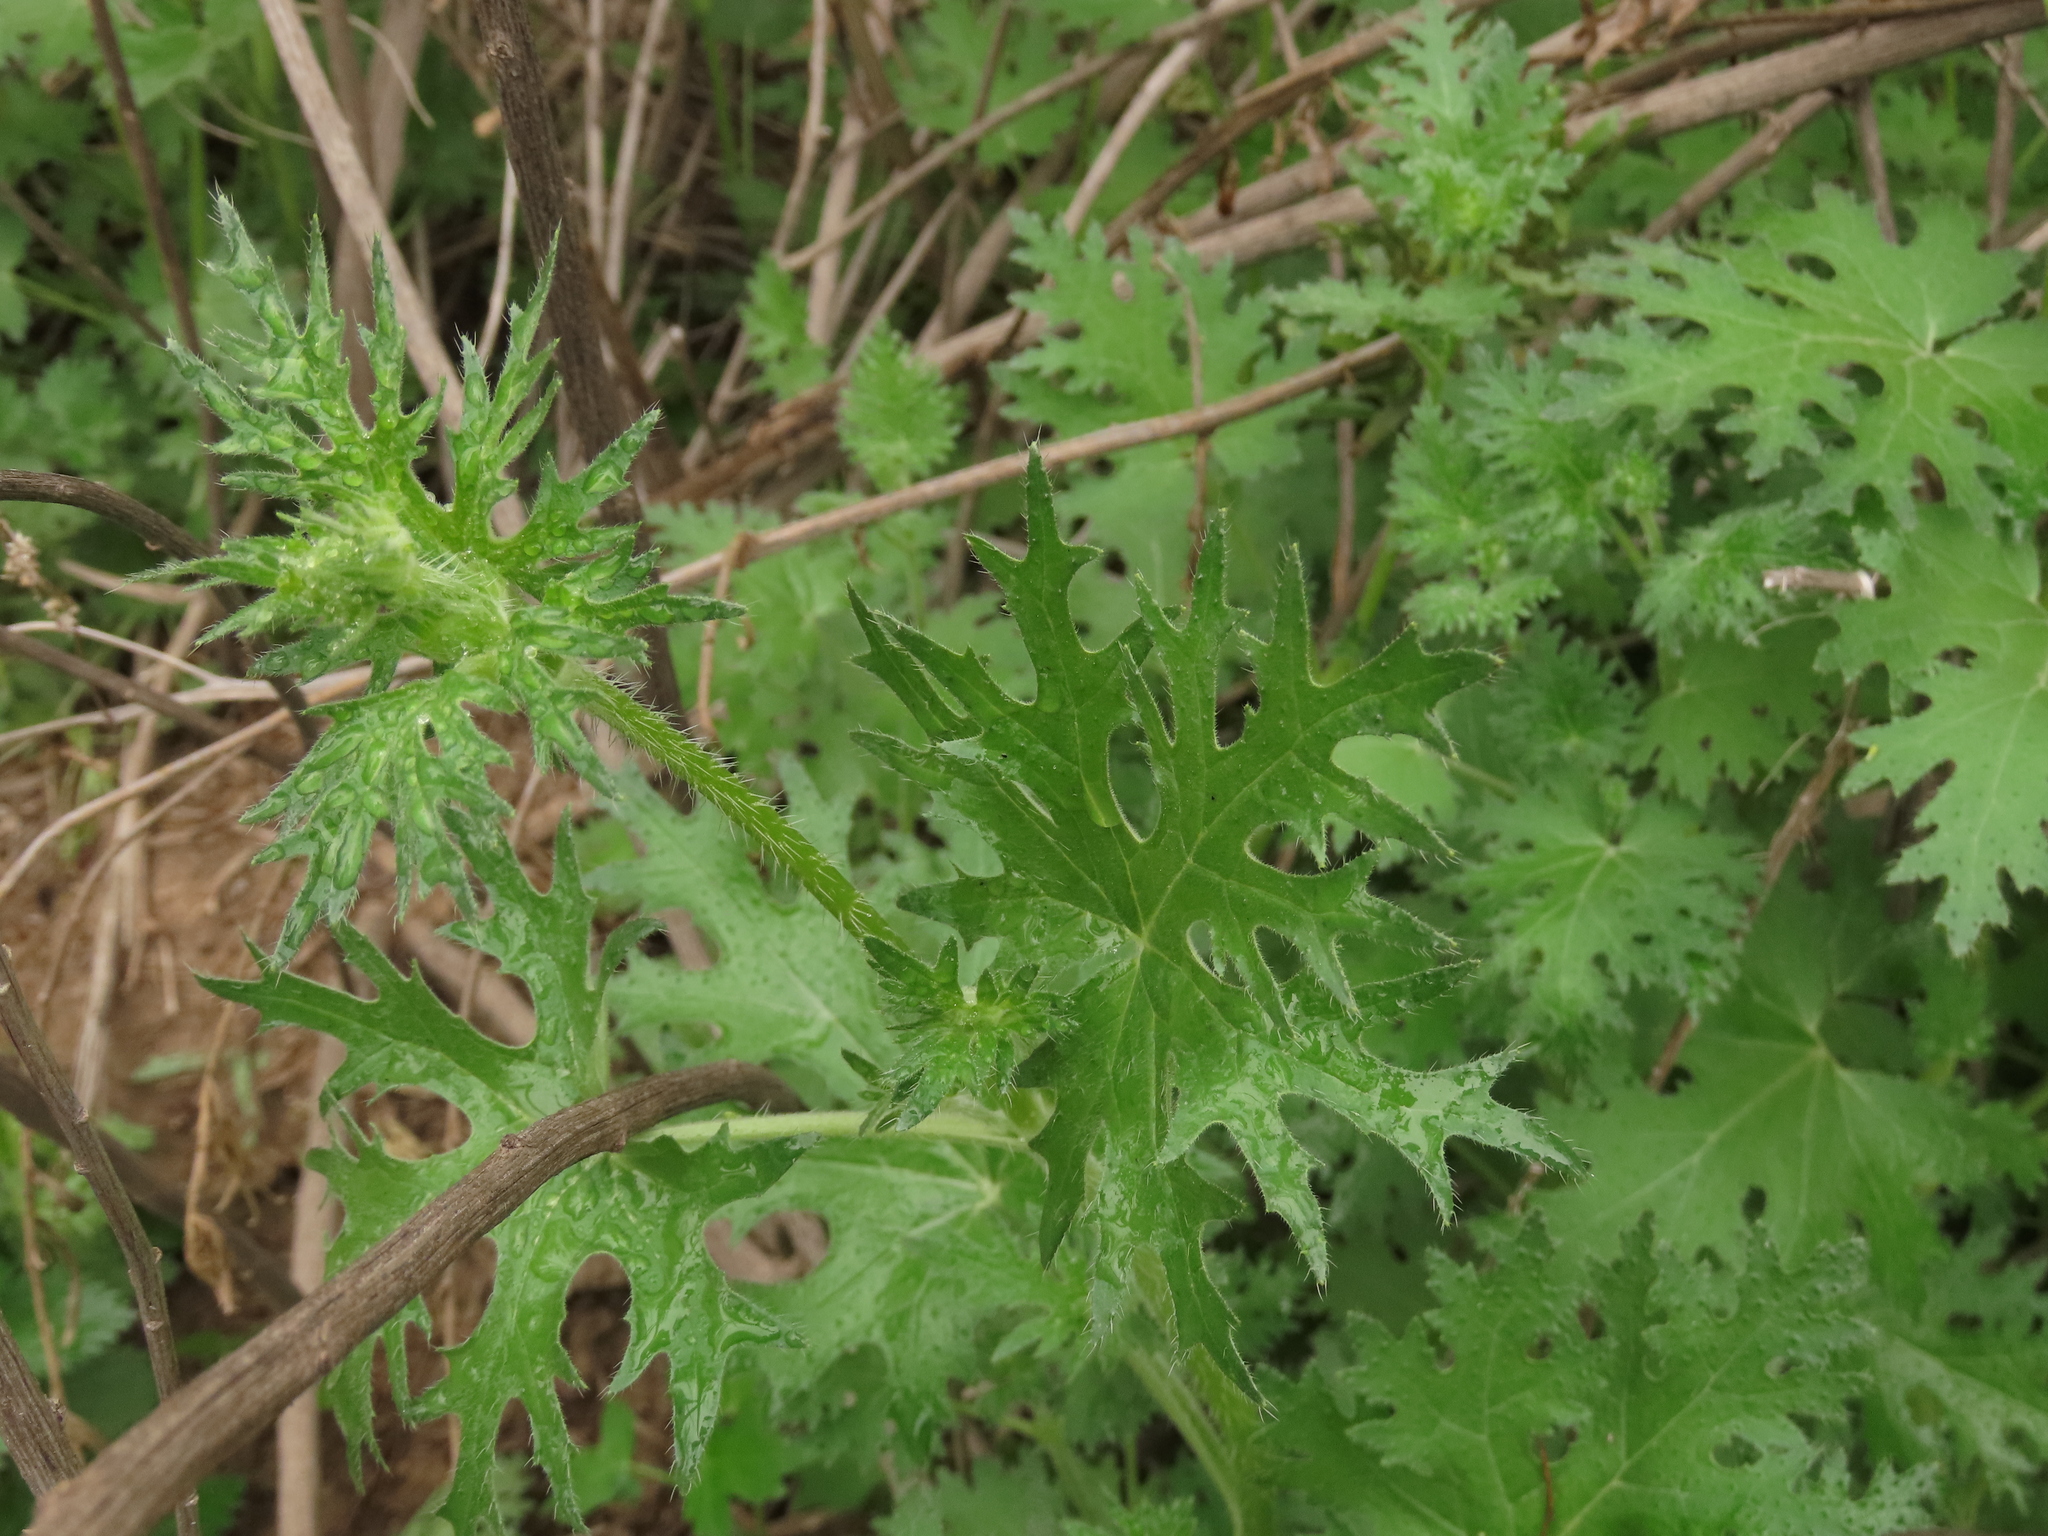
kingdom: Plantae
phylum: Tracheophyta
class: Magnoliopsida
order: Cornales
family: Loasaceae
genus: Loasa
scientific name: Loasa prostrata
